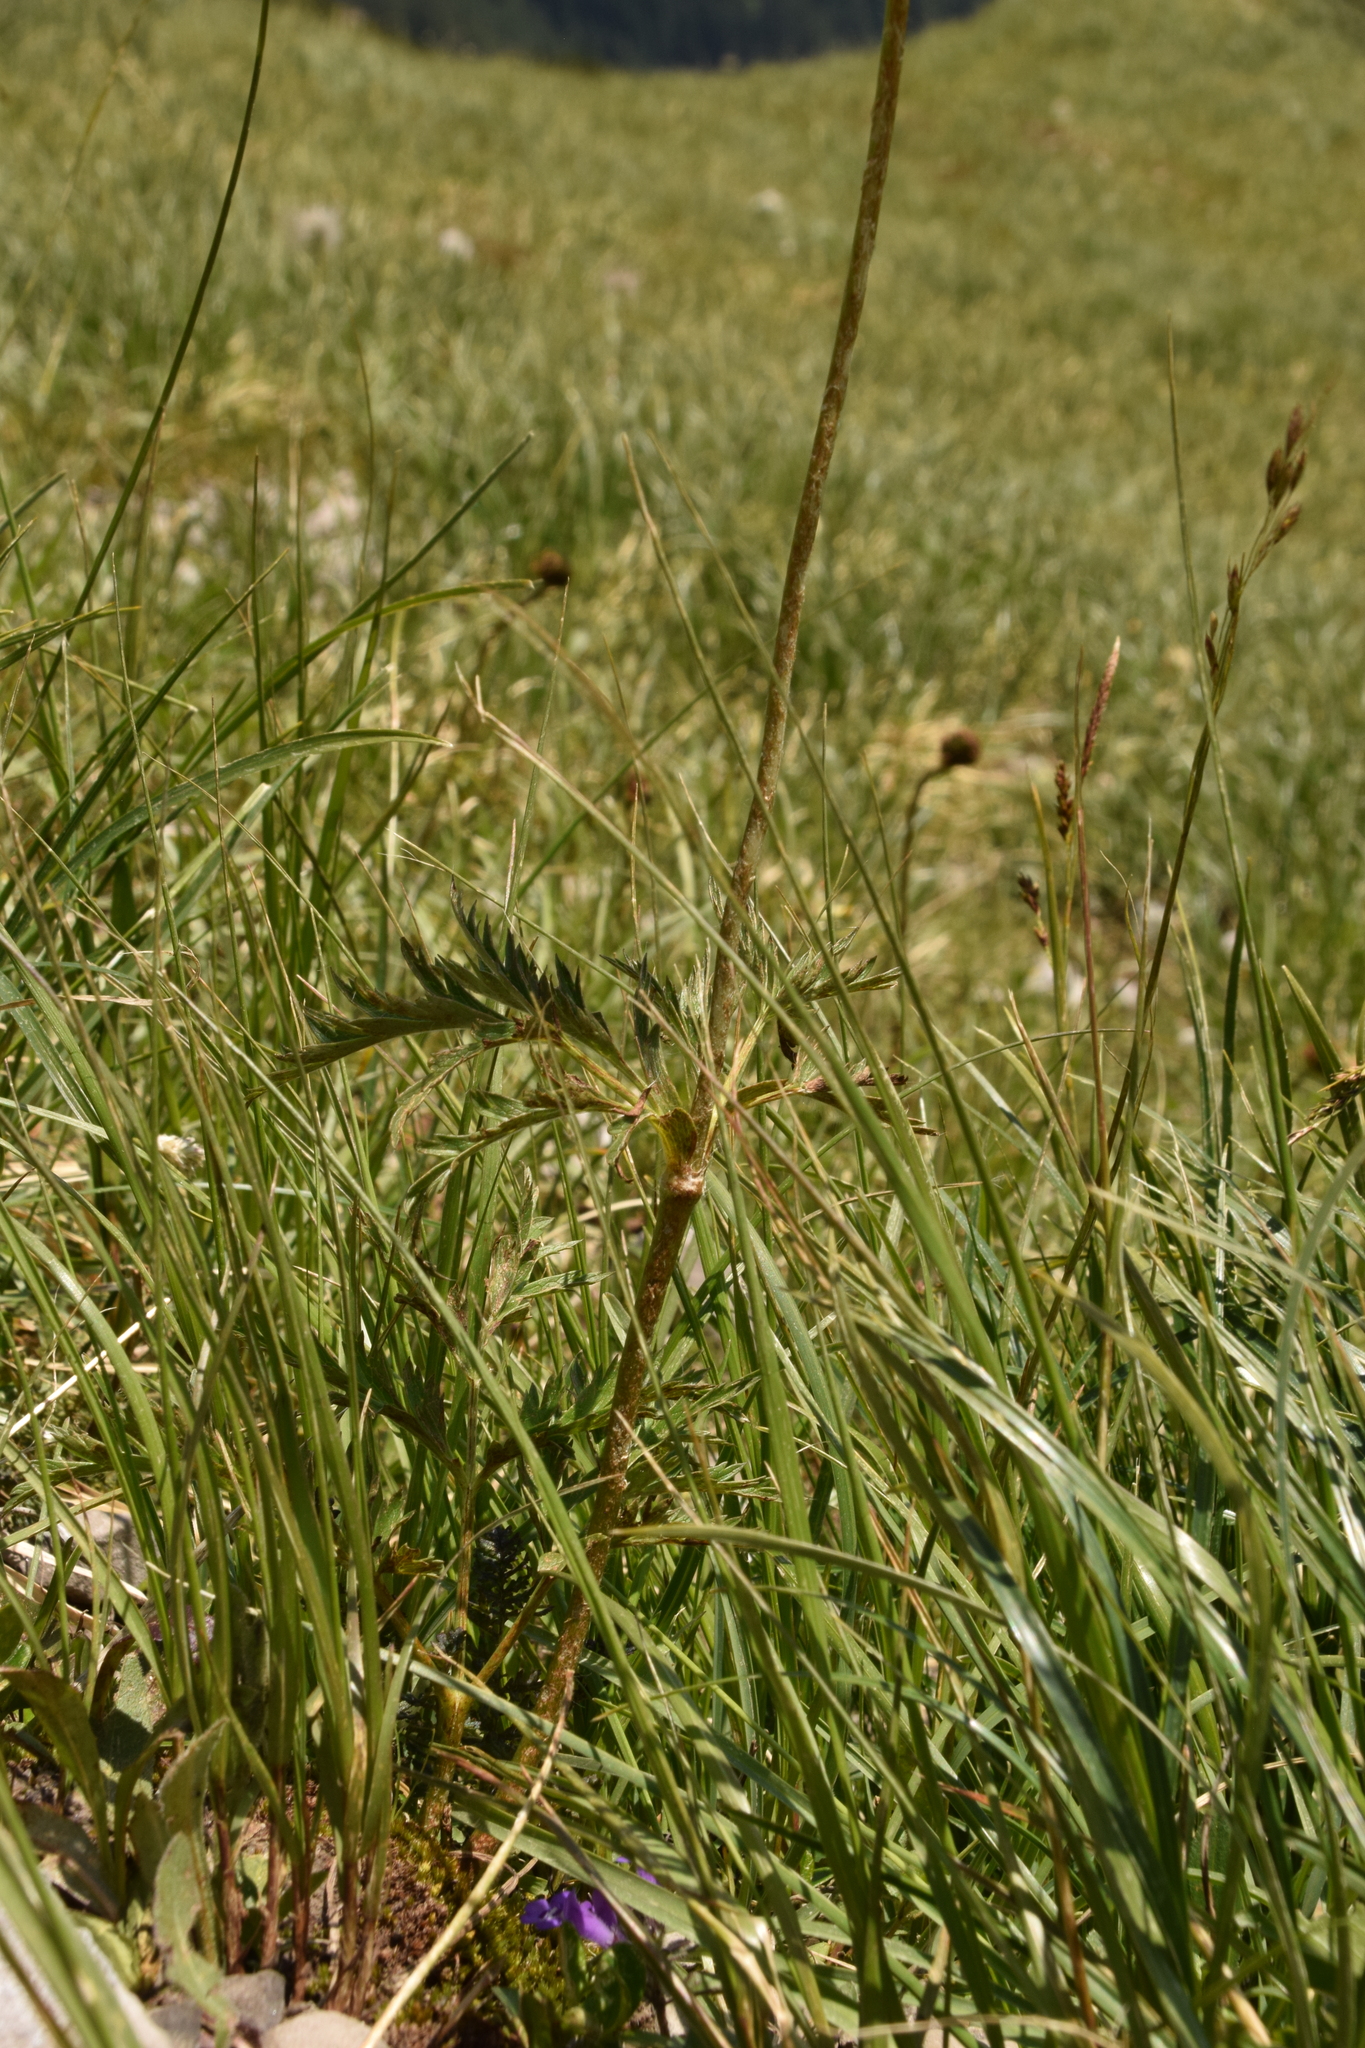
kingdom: Plantae
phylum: Tracheophyta
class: Magnoliopsida
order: Ranunculales
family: Ranunculaceae
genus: Pulsatilla
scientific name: Pulsatilla alpina
